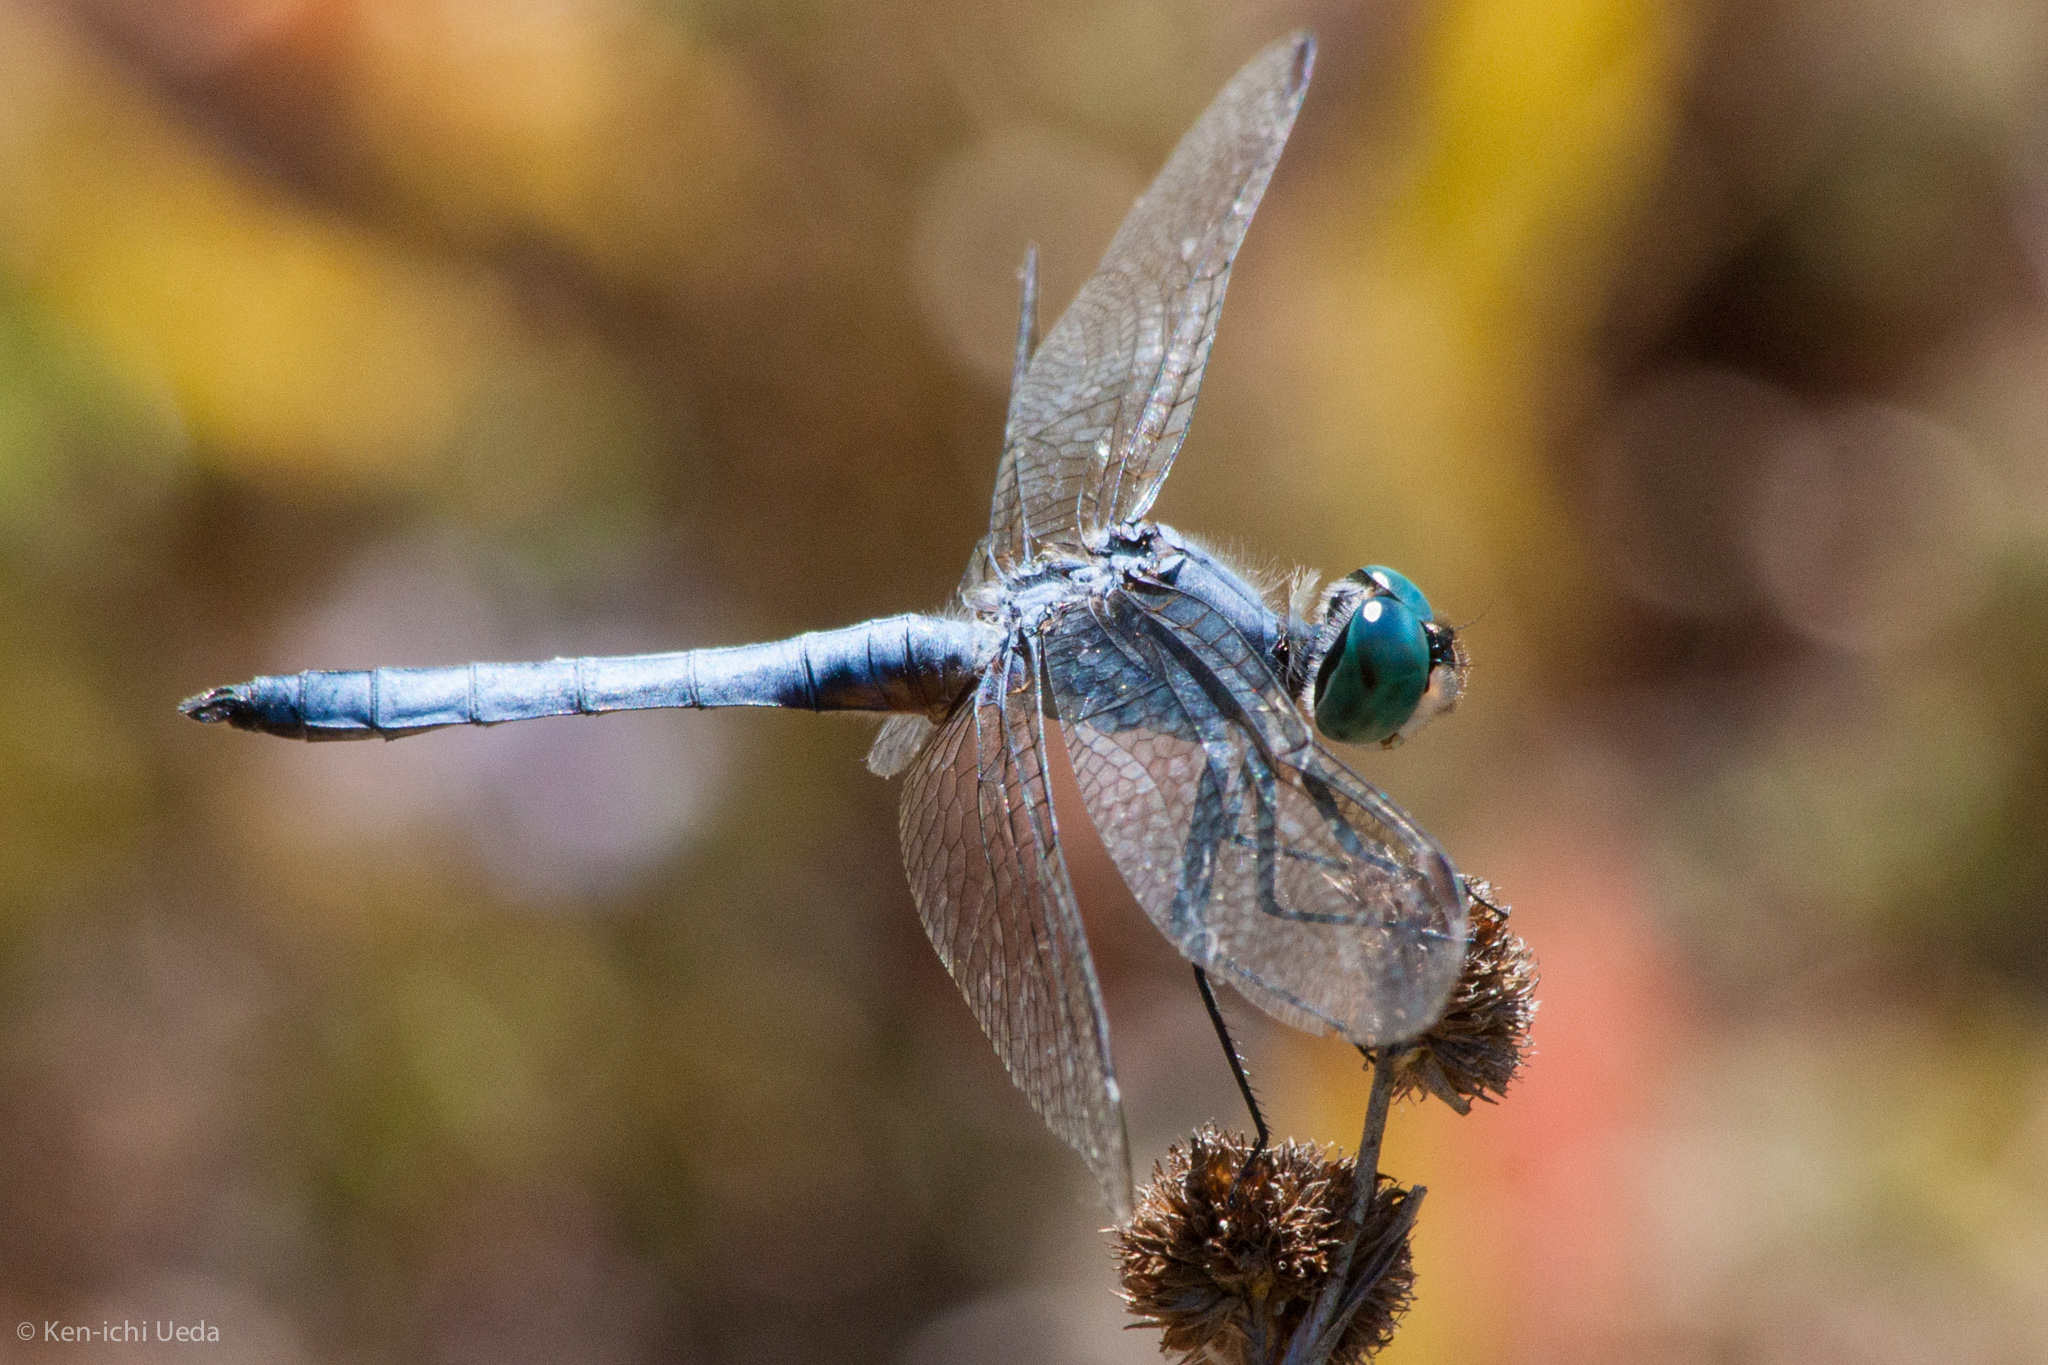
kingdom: Animalia
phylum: Arthropoda
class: Insecta
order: Odonata
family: Libellulidae
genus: Pachydiplax
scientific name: Pachydiplax longipennis
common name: Blue dasher
